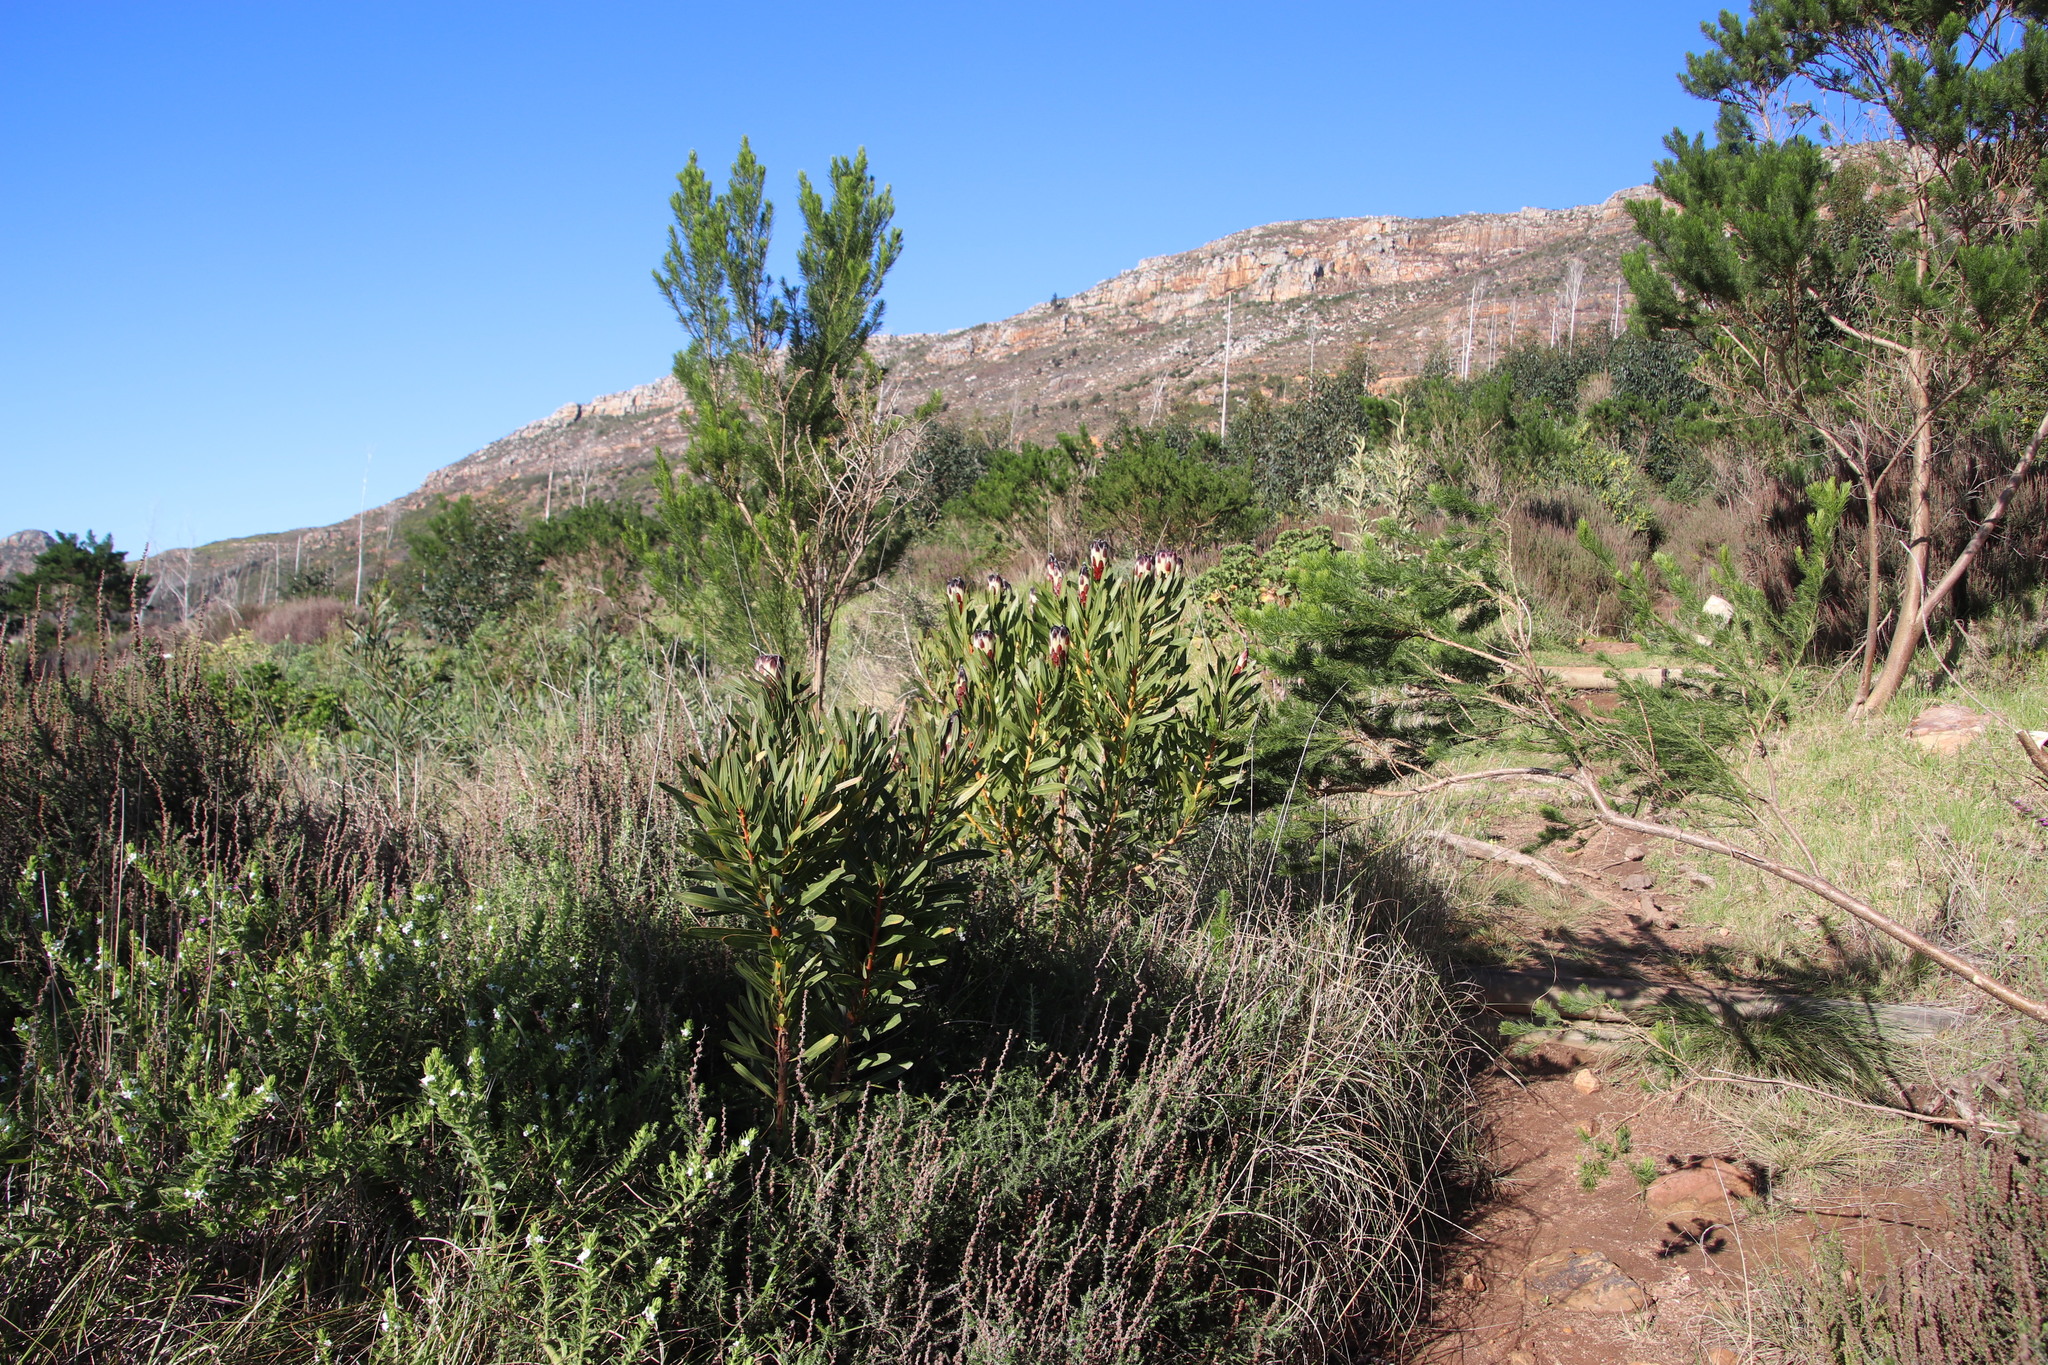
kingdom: Plantae
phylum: Tracheophyta
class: Magnoliopsida
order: Proteales
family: Proteaceae
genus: Protea
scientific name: Protea lepidocarpodendron
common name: Black-bearded protea
